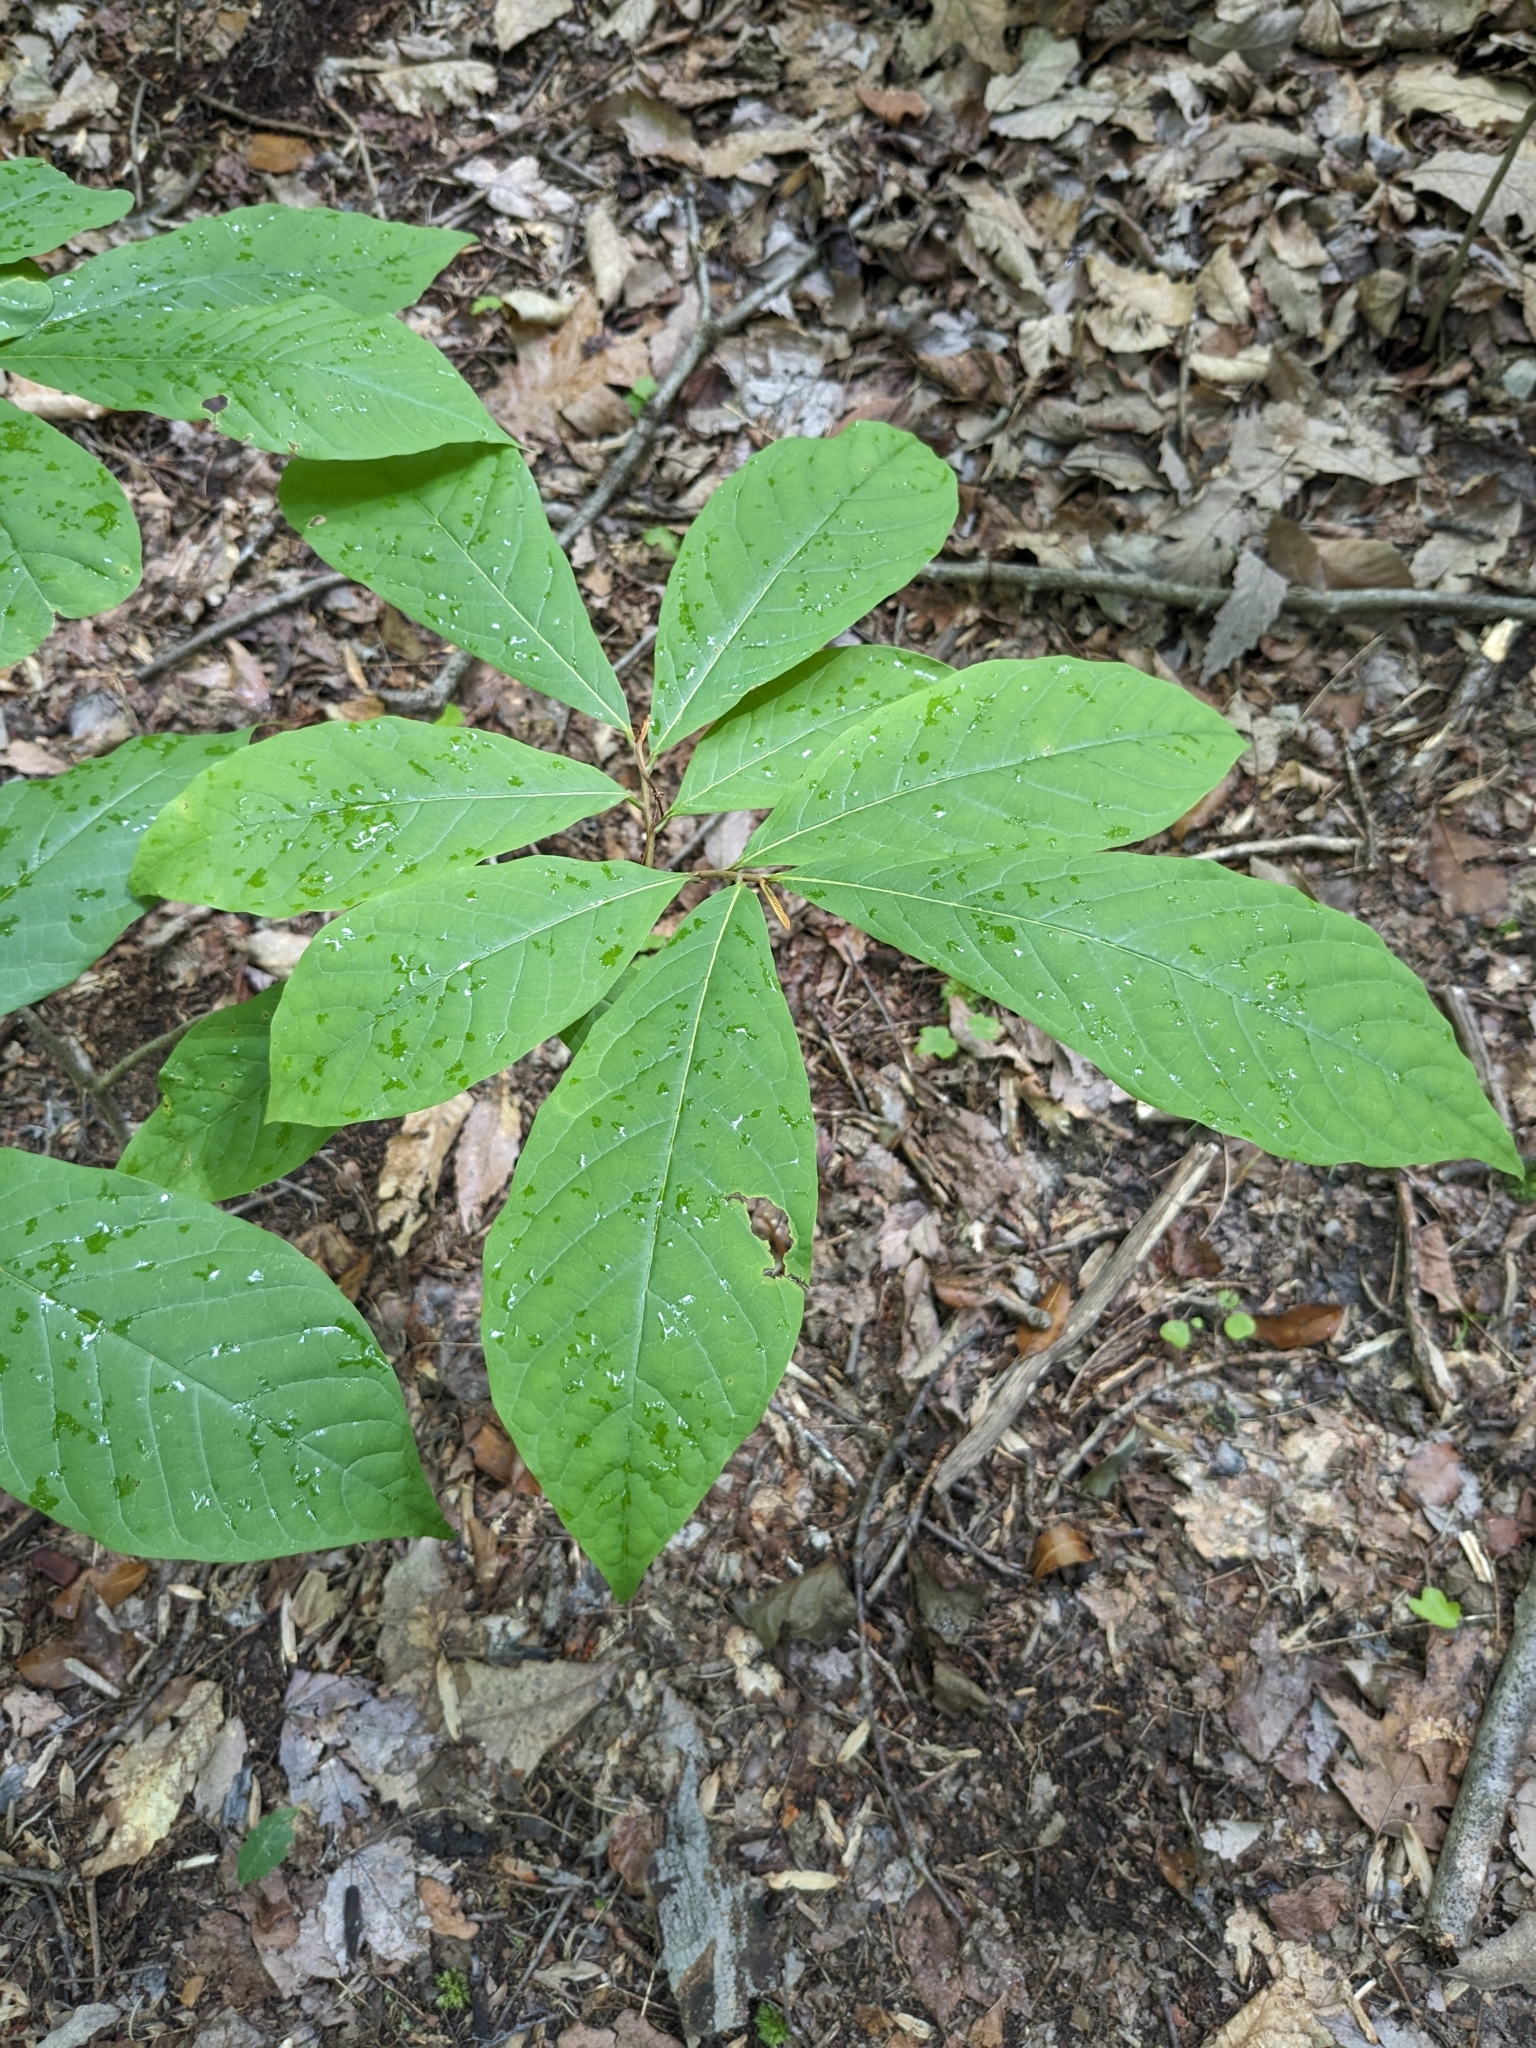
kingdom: Plantae
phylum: Tracheophyta
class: Magnoliopsida
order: Magnoliales
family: Annonaceae
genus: Asimina
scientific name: Asimina triloba
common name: Dog-banana
